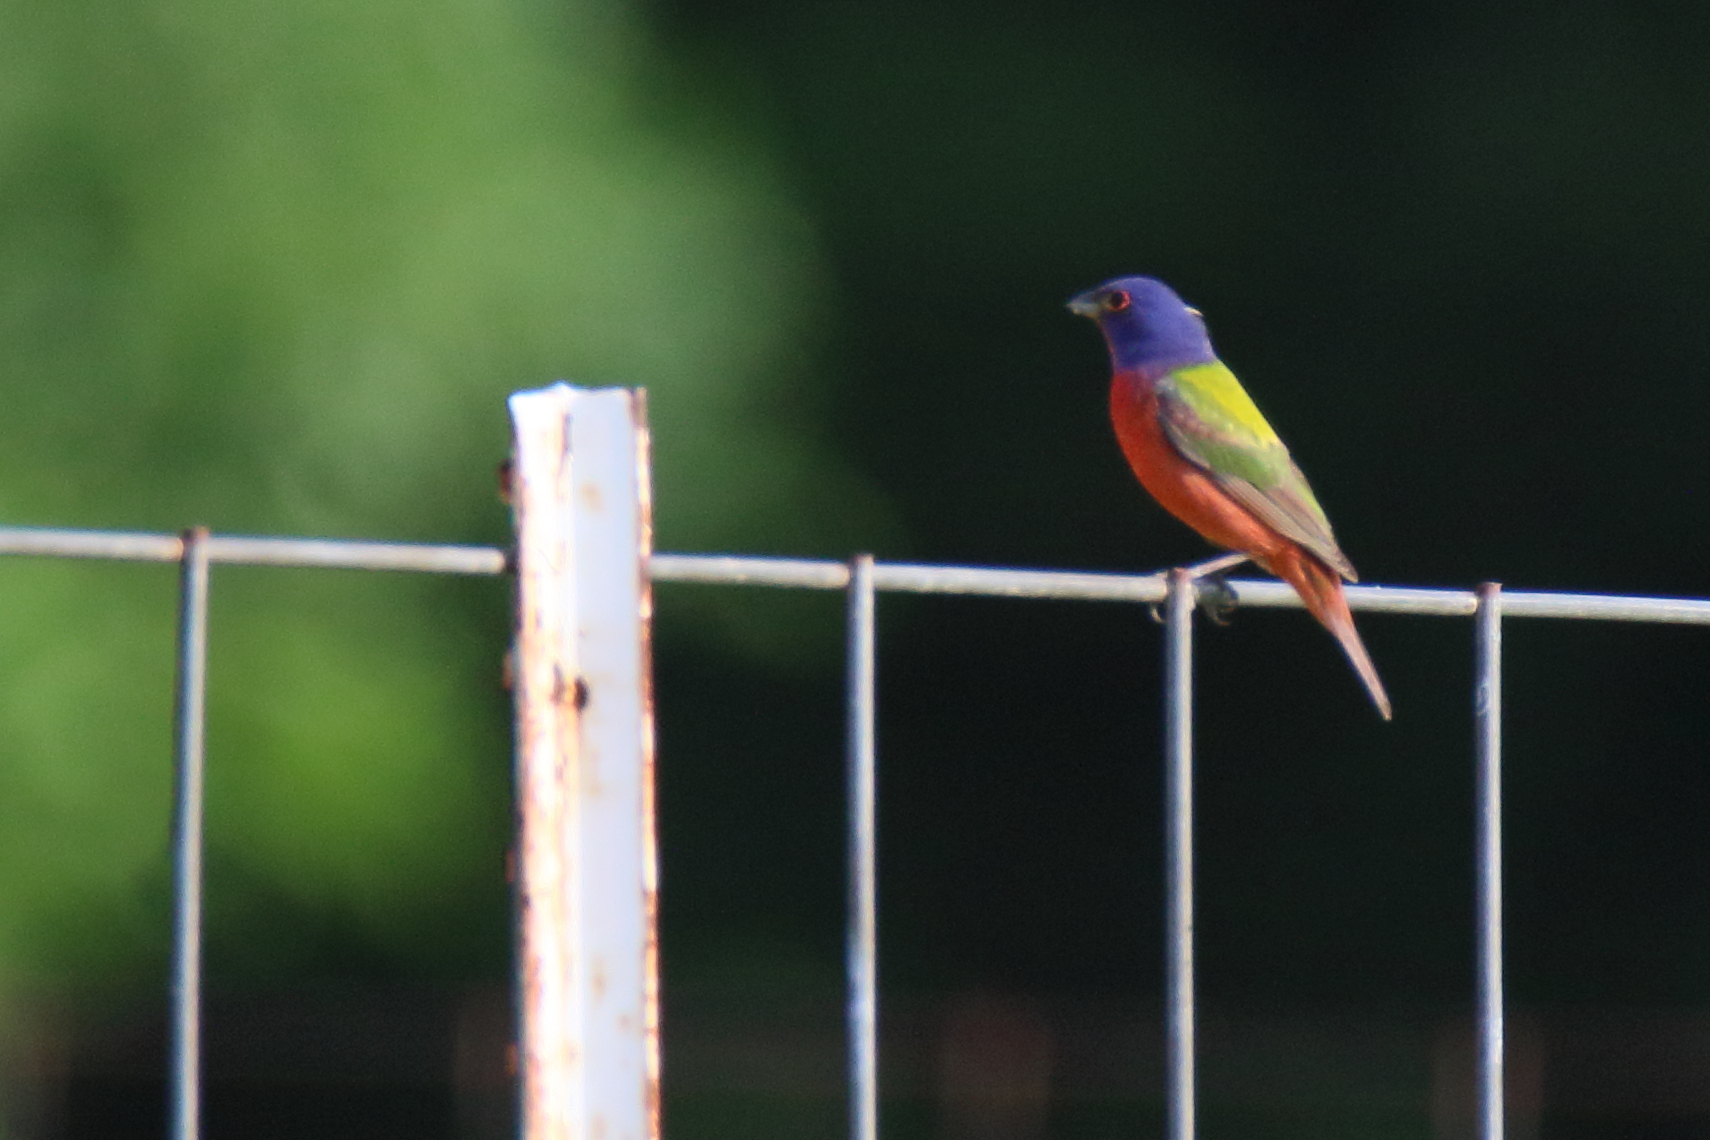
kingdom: Animalia
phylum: Chordata
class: Aves
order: Passeriformes
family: Cardinalidae
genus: Passerina
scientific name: Passerina ciris
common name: Painted bunting
